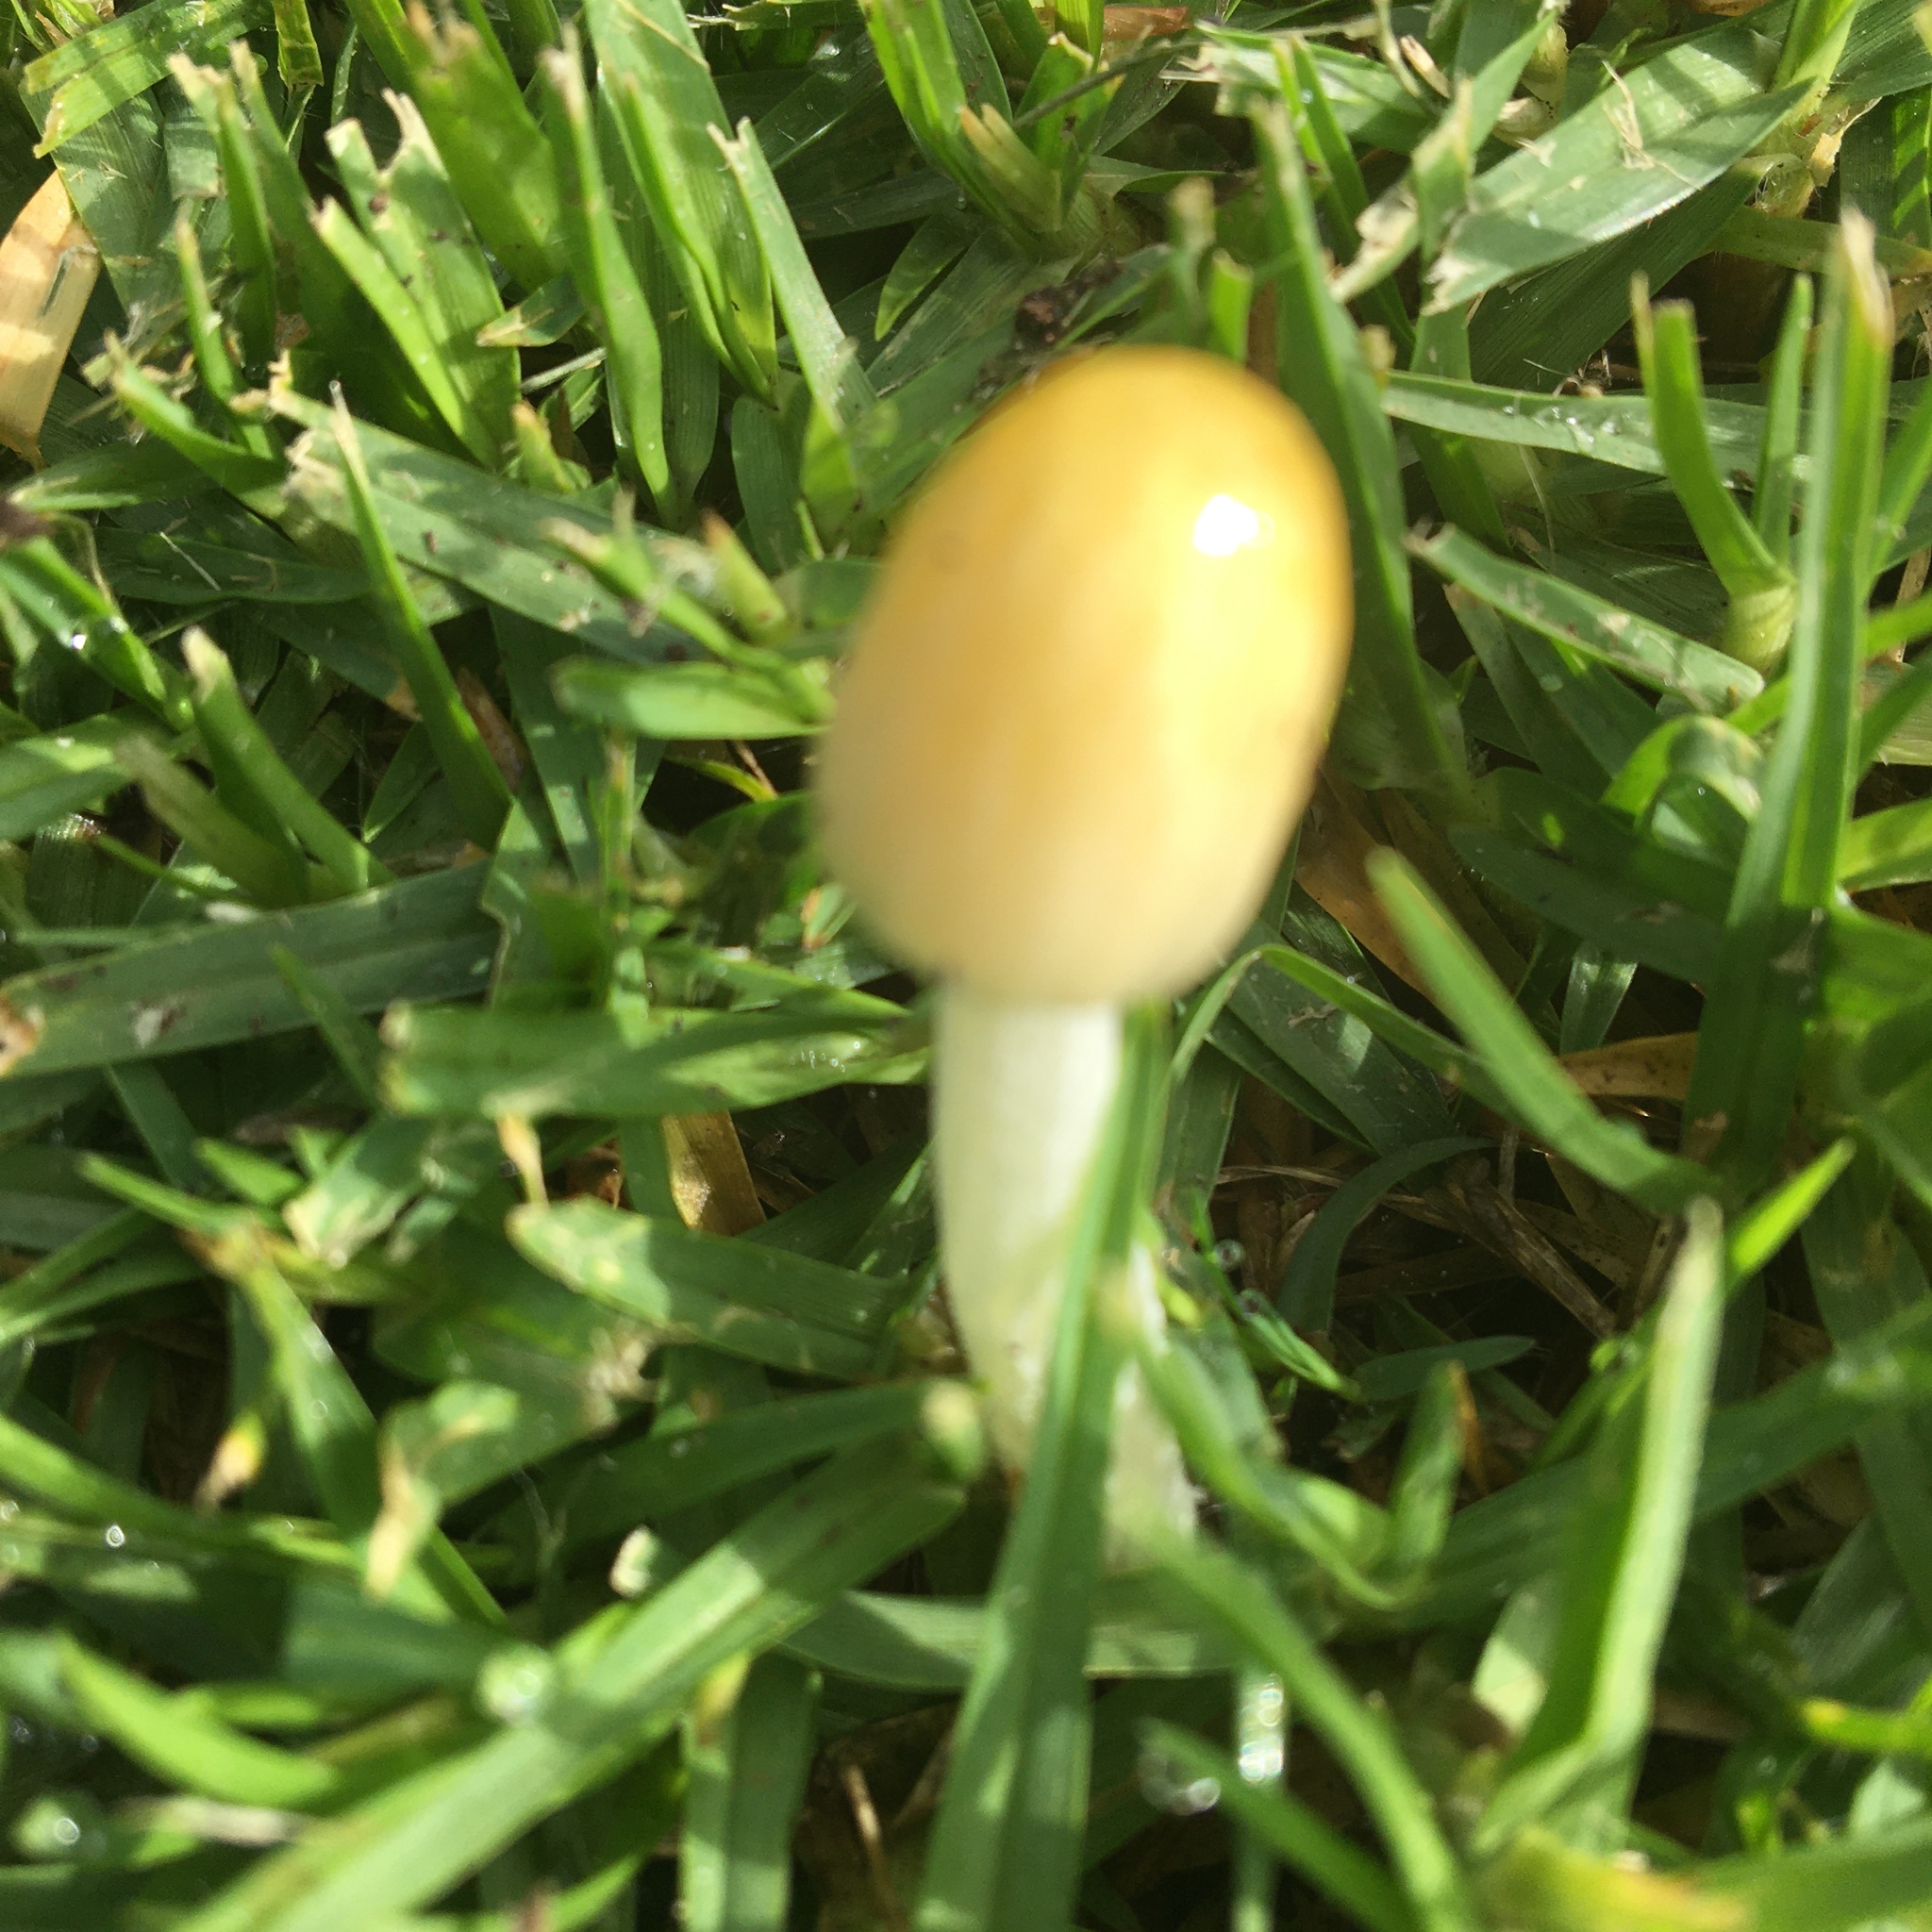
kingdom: Fungi
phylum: Basidiomycota
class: Agaricomycetes
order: Agaricales
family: Bolbitiaceae
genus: Bolbitius
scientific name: Bolbitius titubans
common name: Yellow fieldcap
